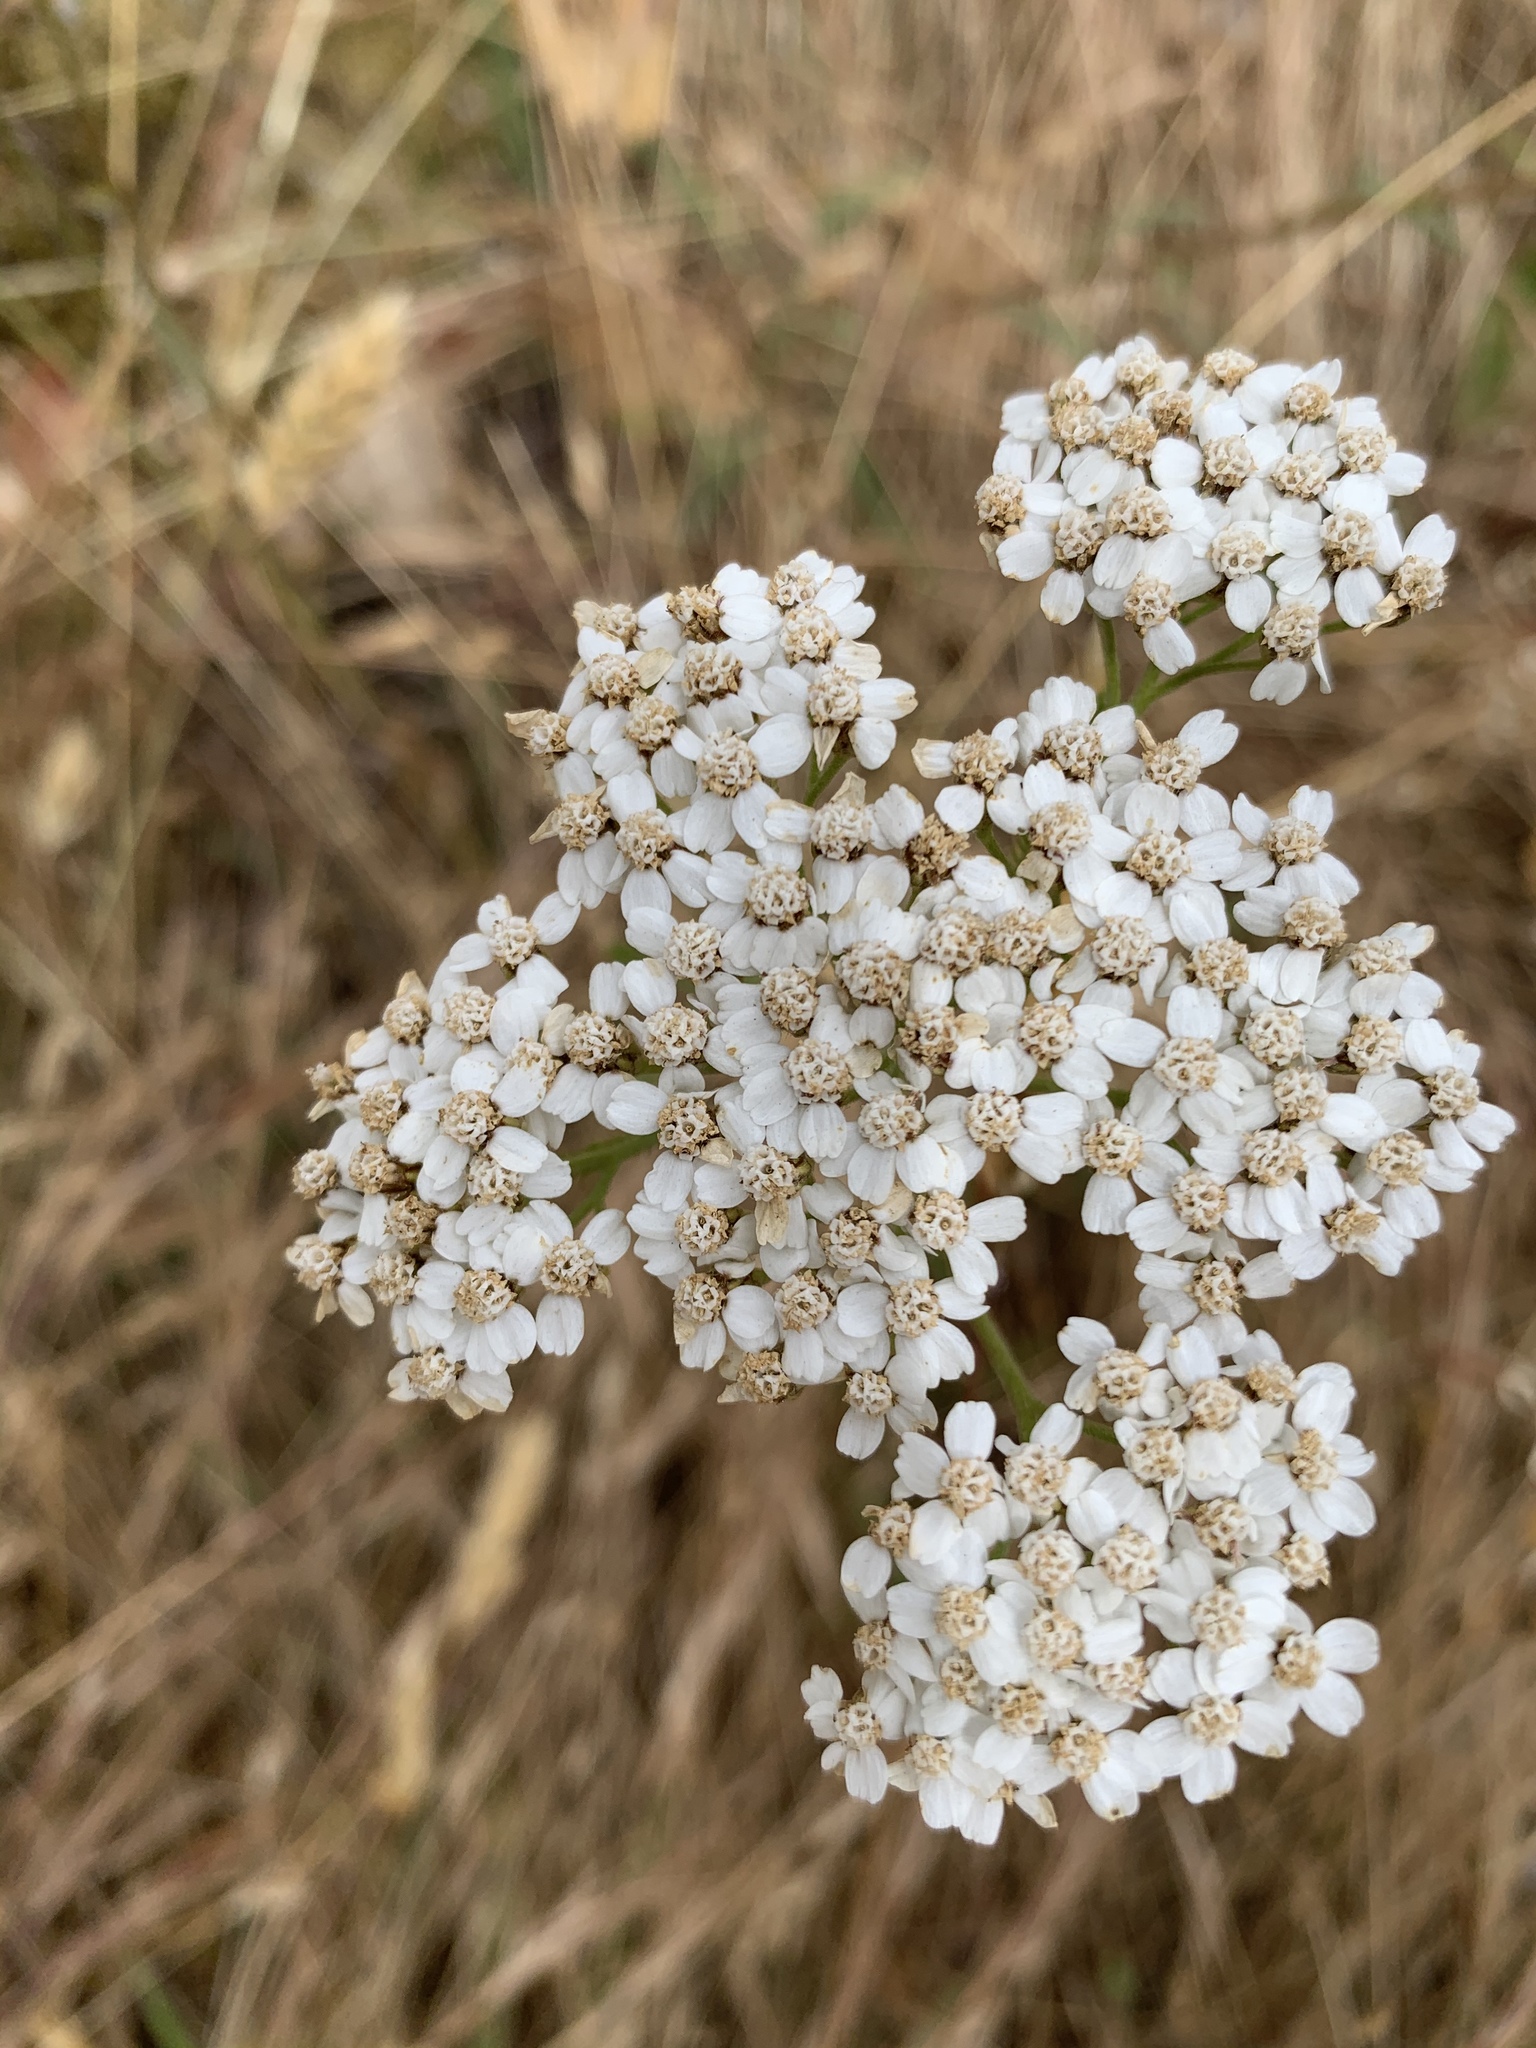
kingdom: Plantae
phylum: Tracheophyta
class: Magnoliopsida
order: Asterales
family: Asteraceae
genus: Achillea
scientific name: Achillea millefolium
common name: Yarrow
